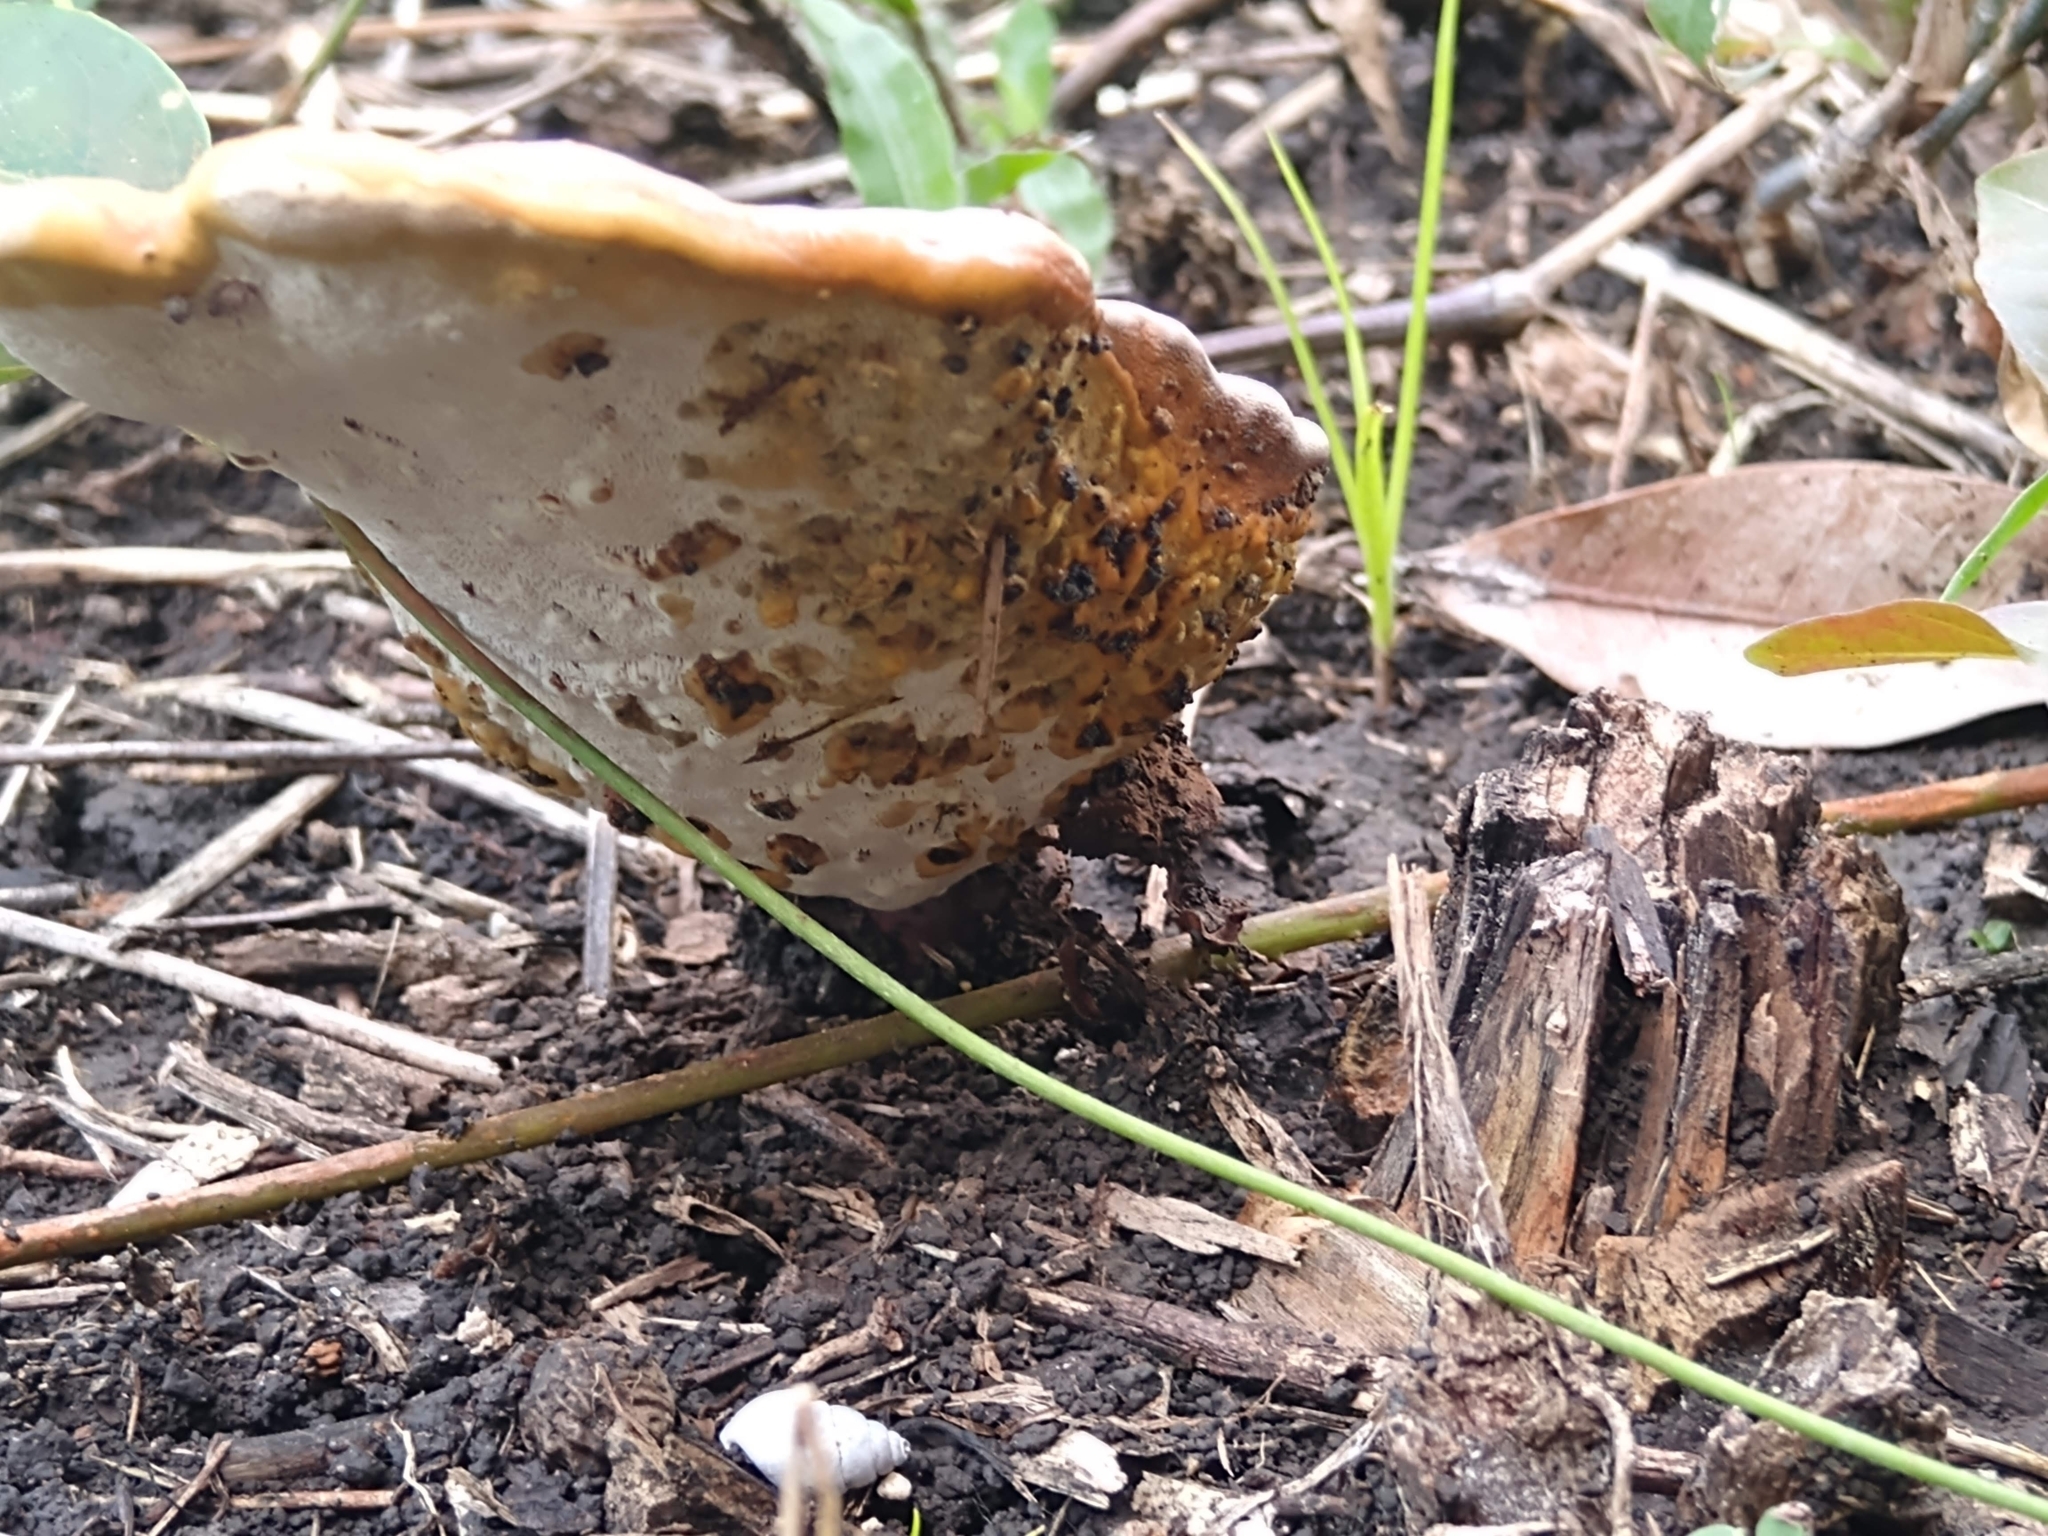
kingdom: Fungi
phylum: Basidiomycota
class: Agaricomycetes
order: Polyporales
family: Polyporaceae
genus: Ganoderma
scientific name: Ganoderma curtisii
